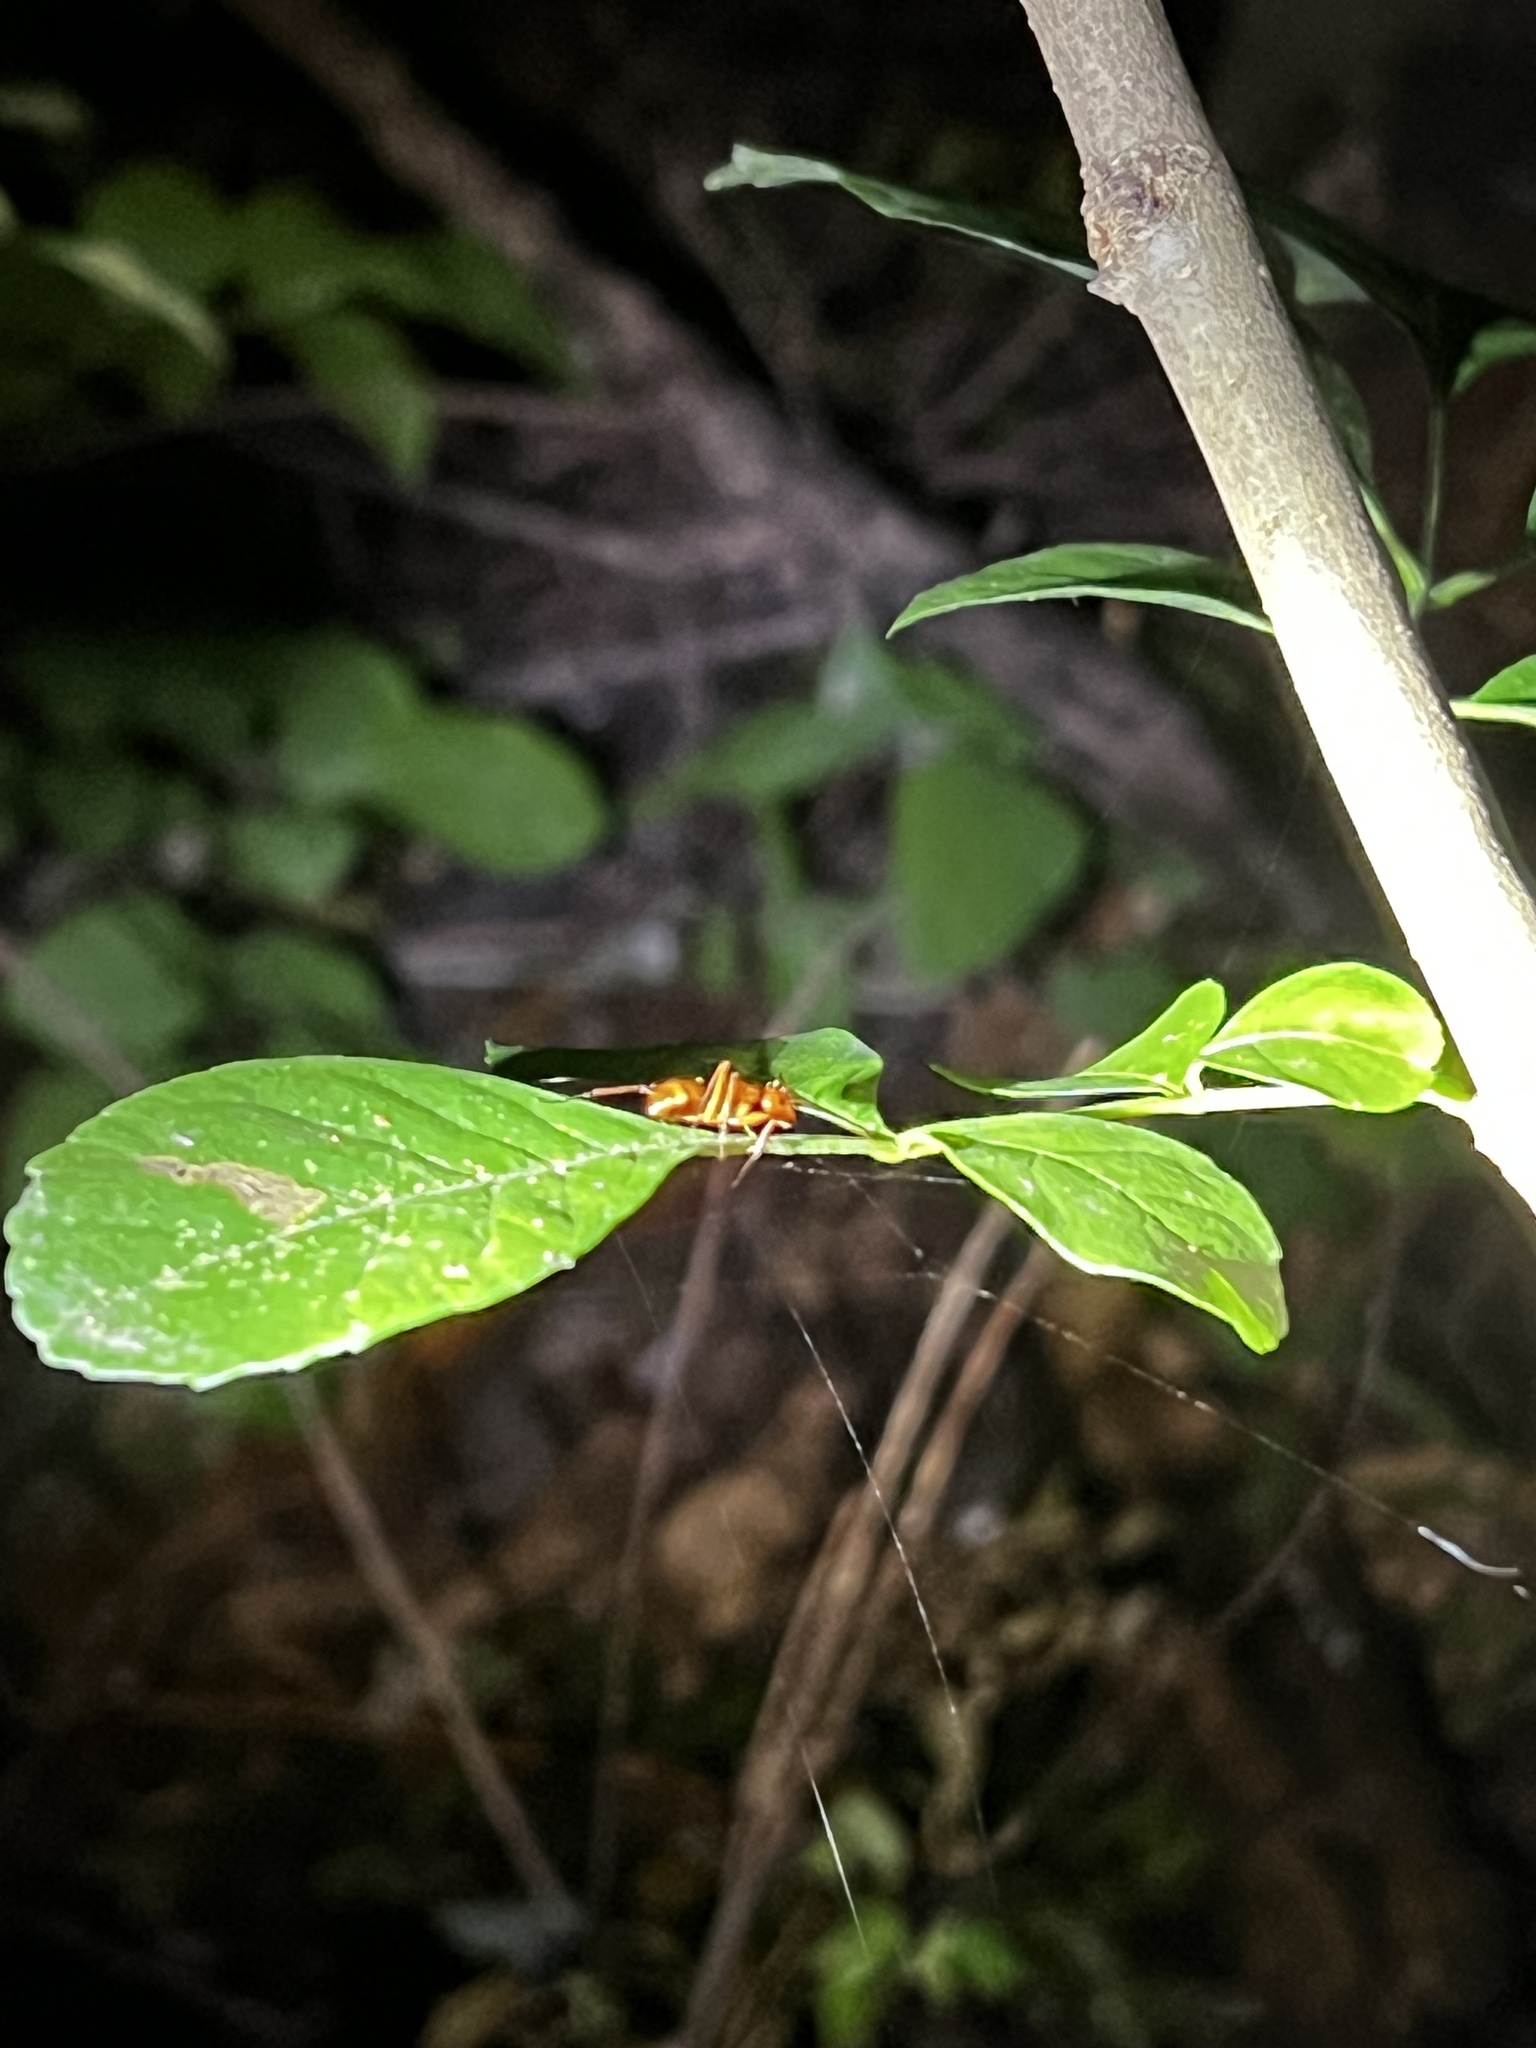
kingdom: Animalia
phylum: Arthropoda
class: Insecta
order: Hymenoptera
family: Formicidae
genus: Camponotus
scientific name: Camponotus castaneus
